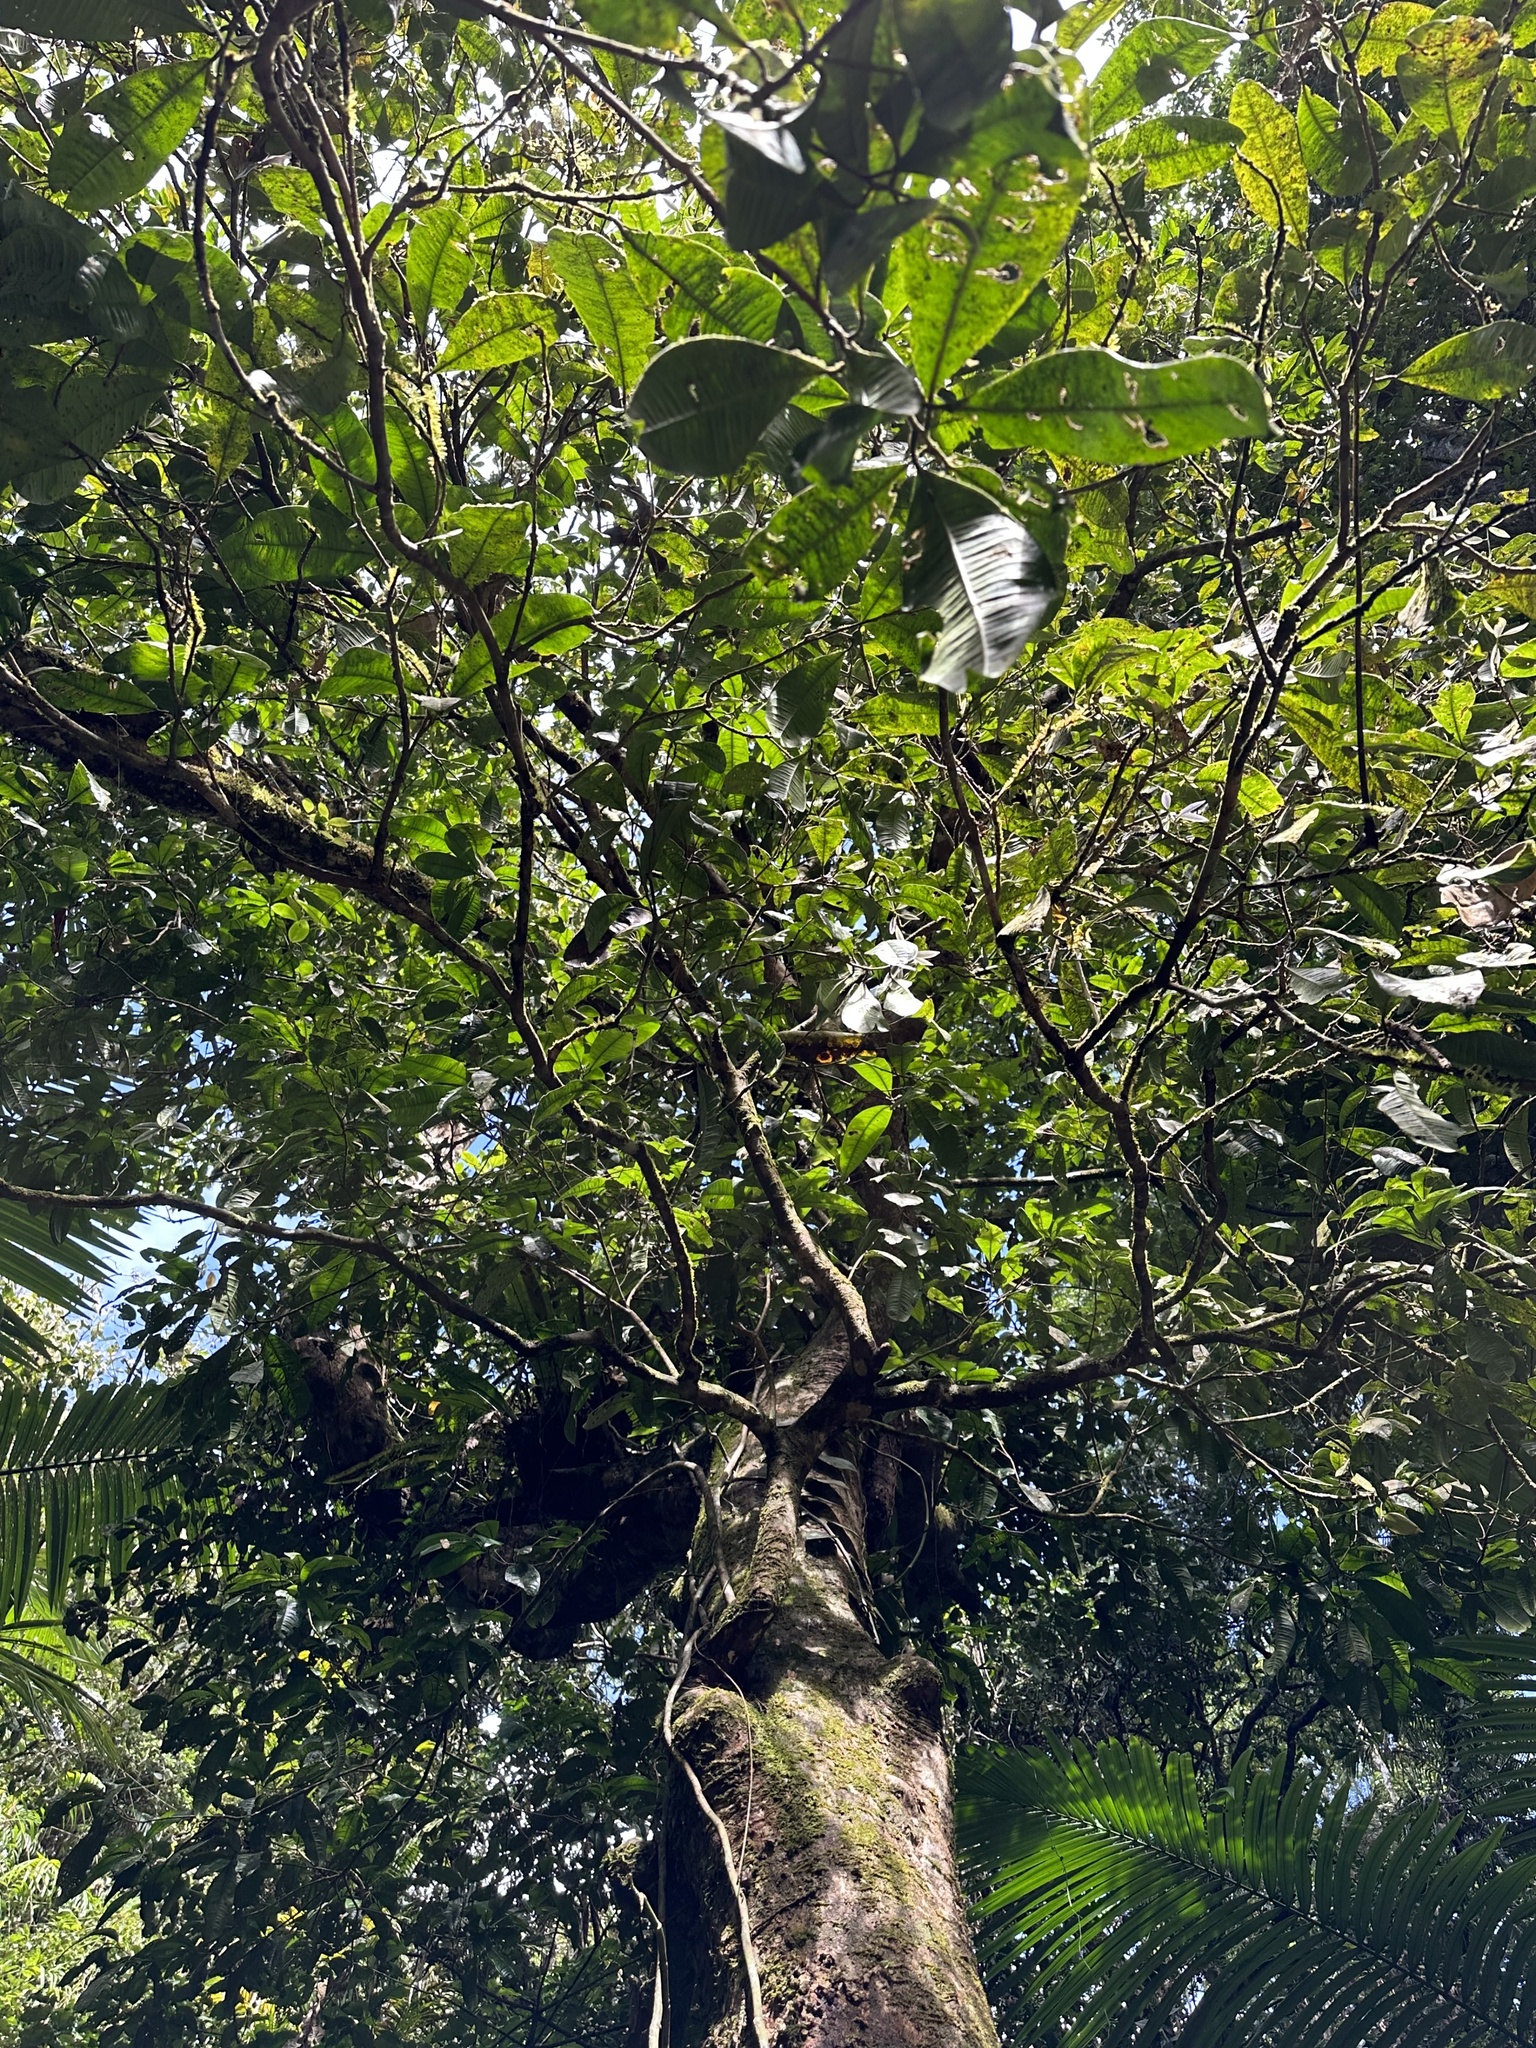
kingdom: Plantae
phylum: Tracheophyta
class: Magnoliopsida
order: Myrtales
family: Myrtaceae
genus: Lindsayomyrtus
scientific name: Lindsayomyrtus racemoides
